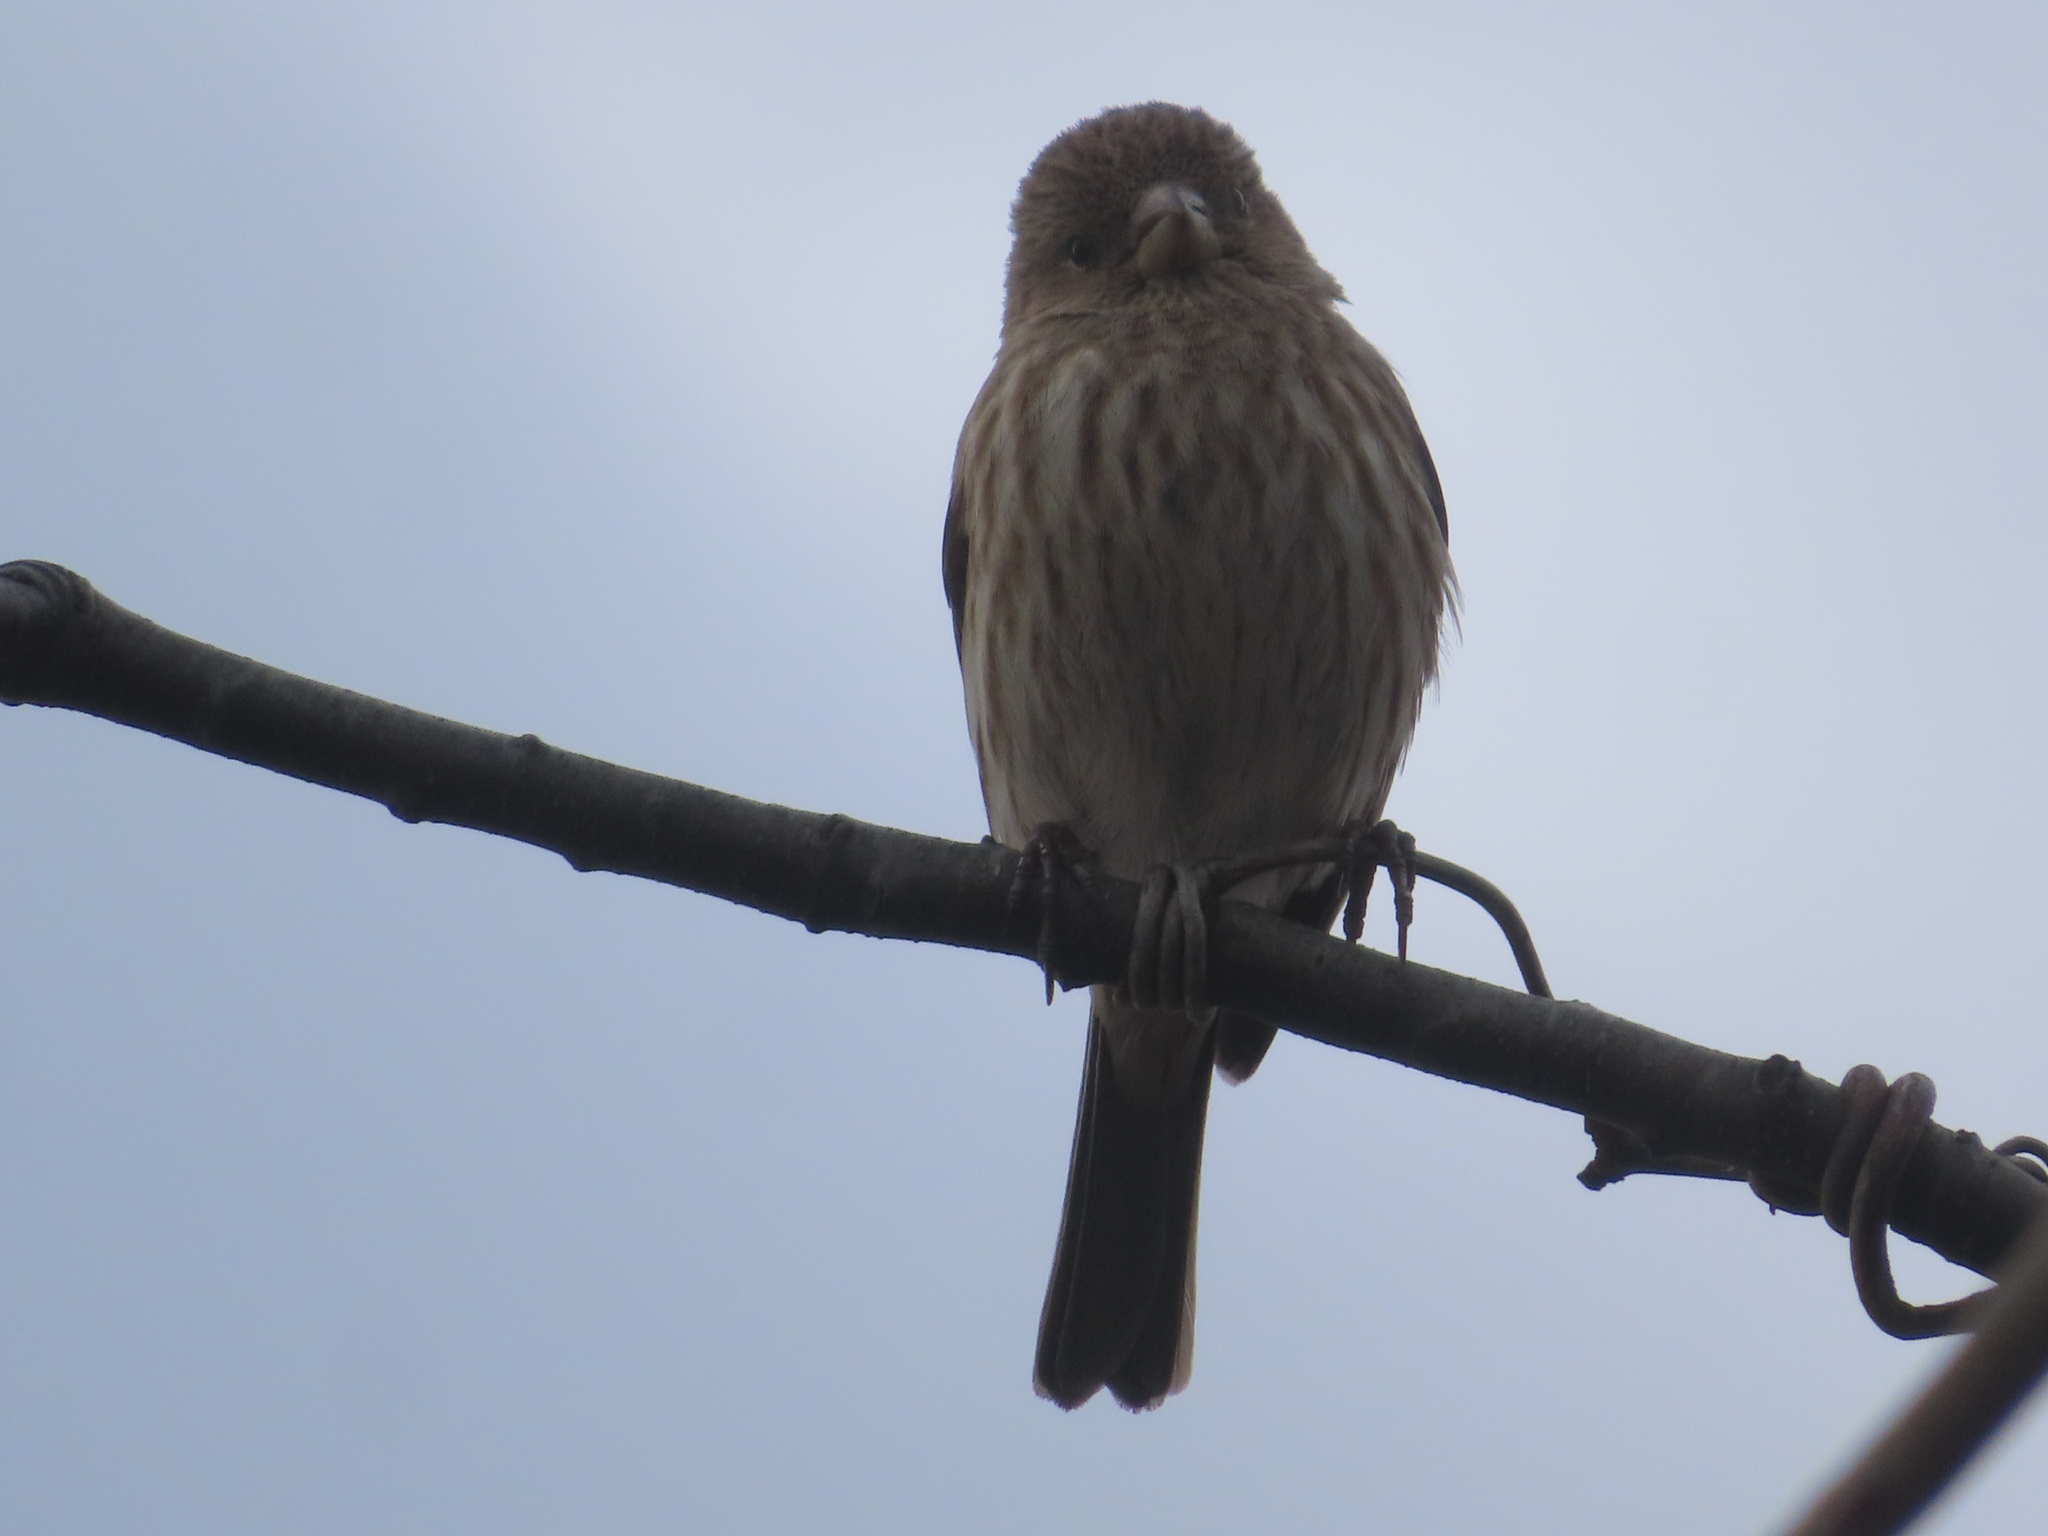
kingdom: Animalia
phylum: Chordata
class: Aves
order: Passeriformes
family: Fringillidae
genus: Haemorhous
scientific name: Haemorhous mexicanus
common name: House finch
